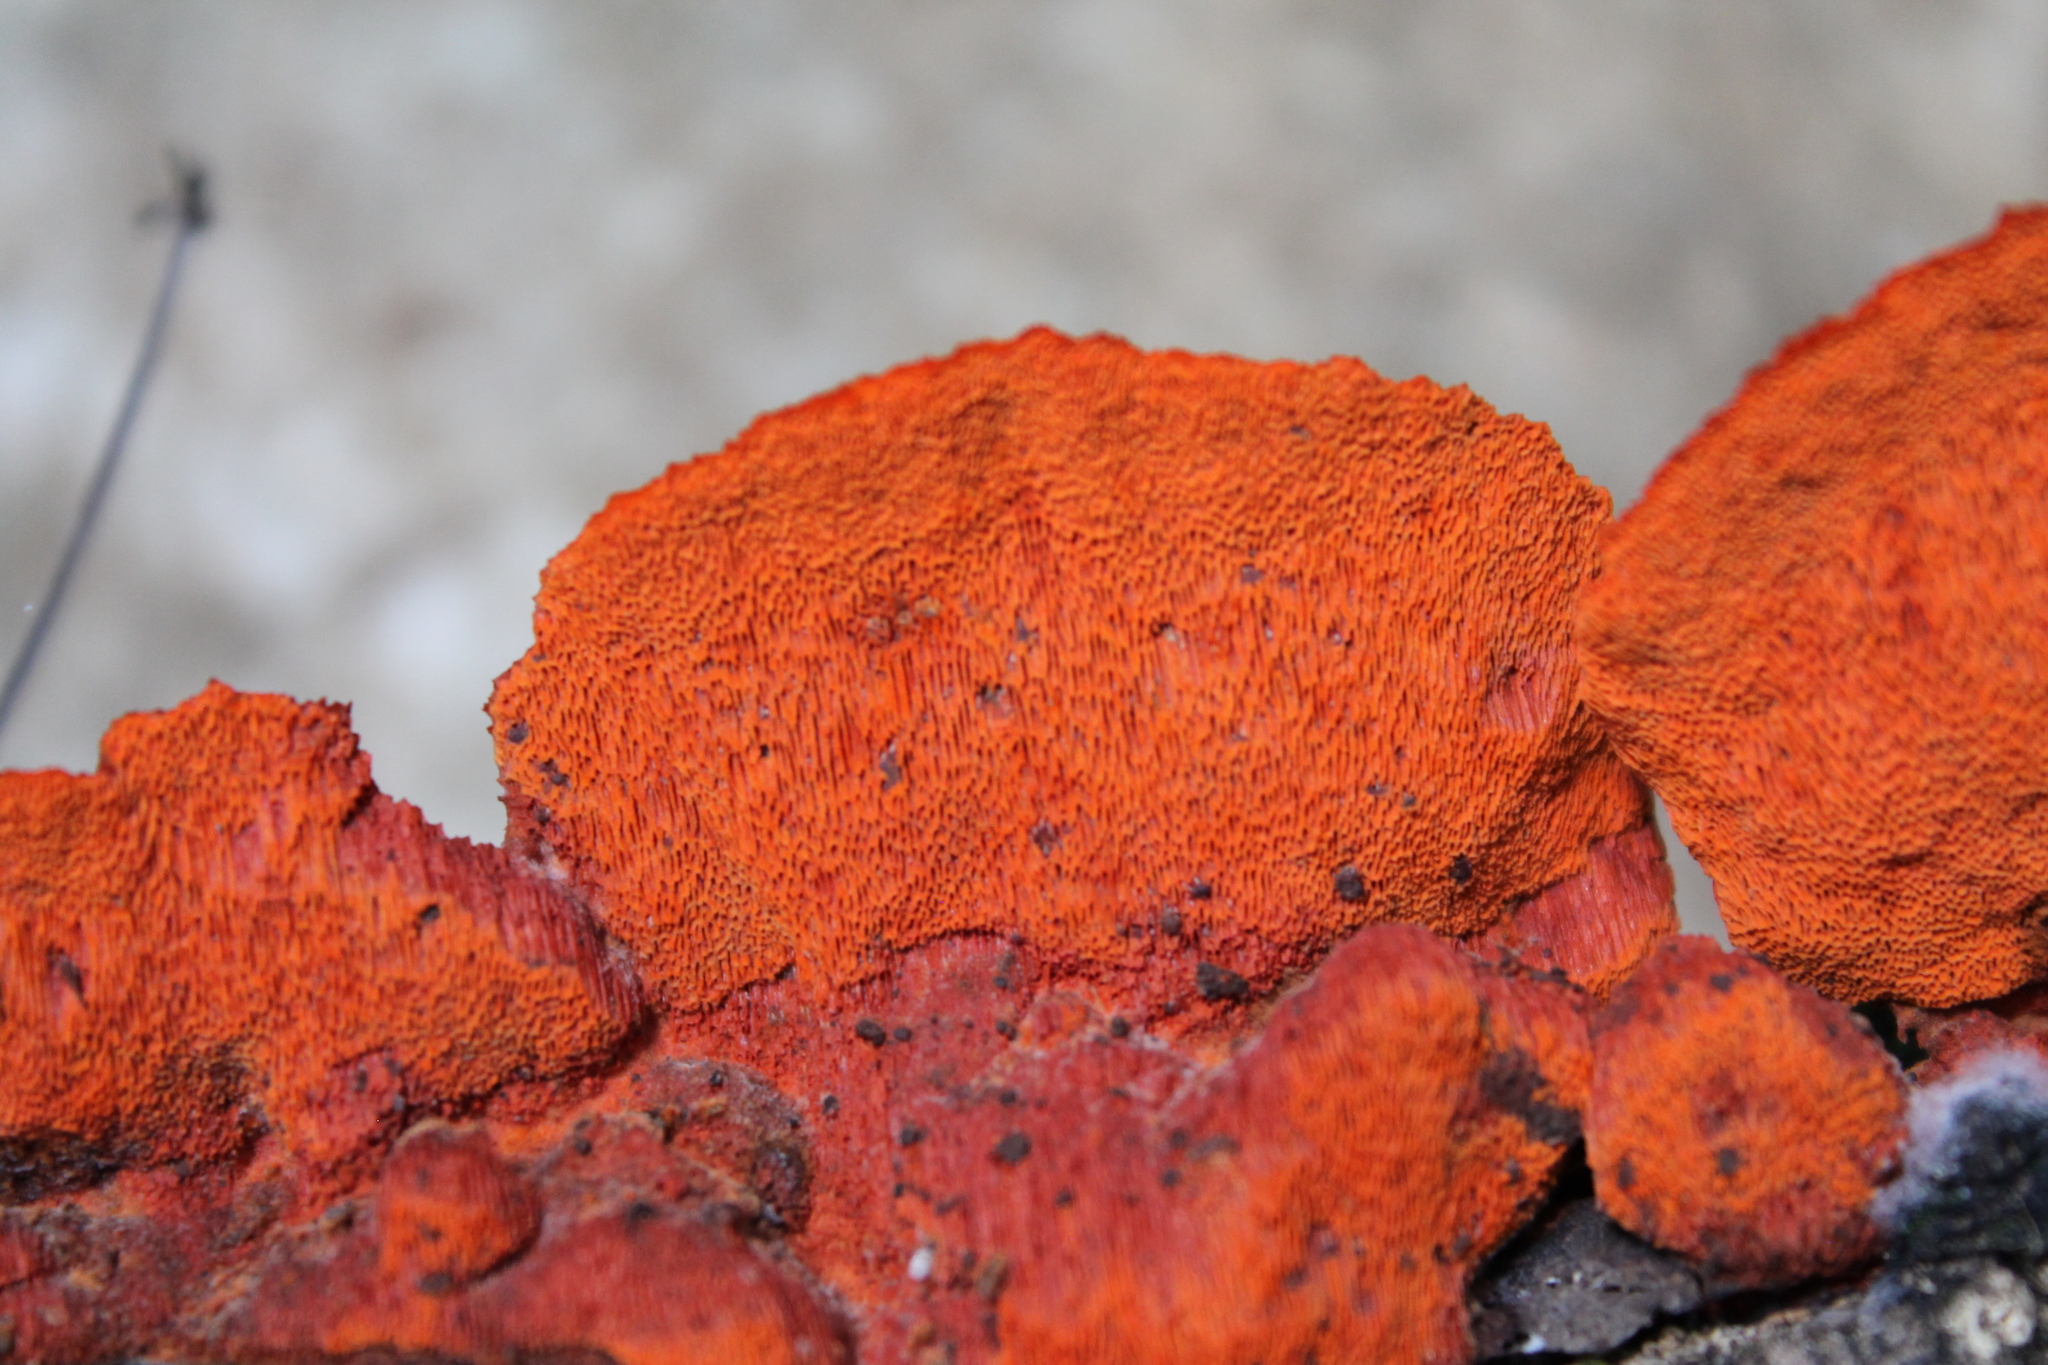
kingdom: Fungi
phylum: Basidiomycota
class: Agaricomycetes
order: Polyporales
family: Polyporaceae
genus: Trametes
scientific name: Trametes cinnabarina
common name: Northern cinnabar polypore
